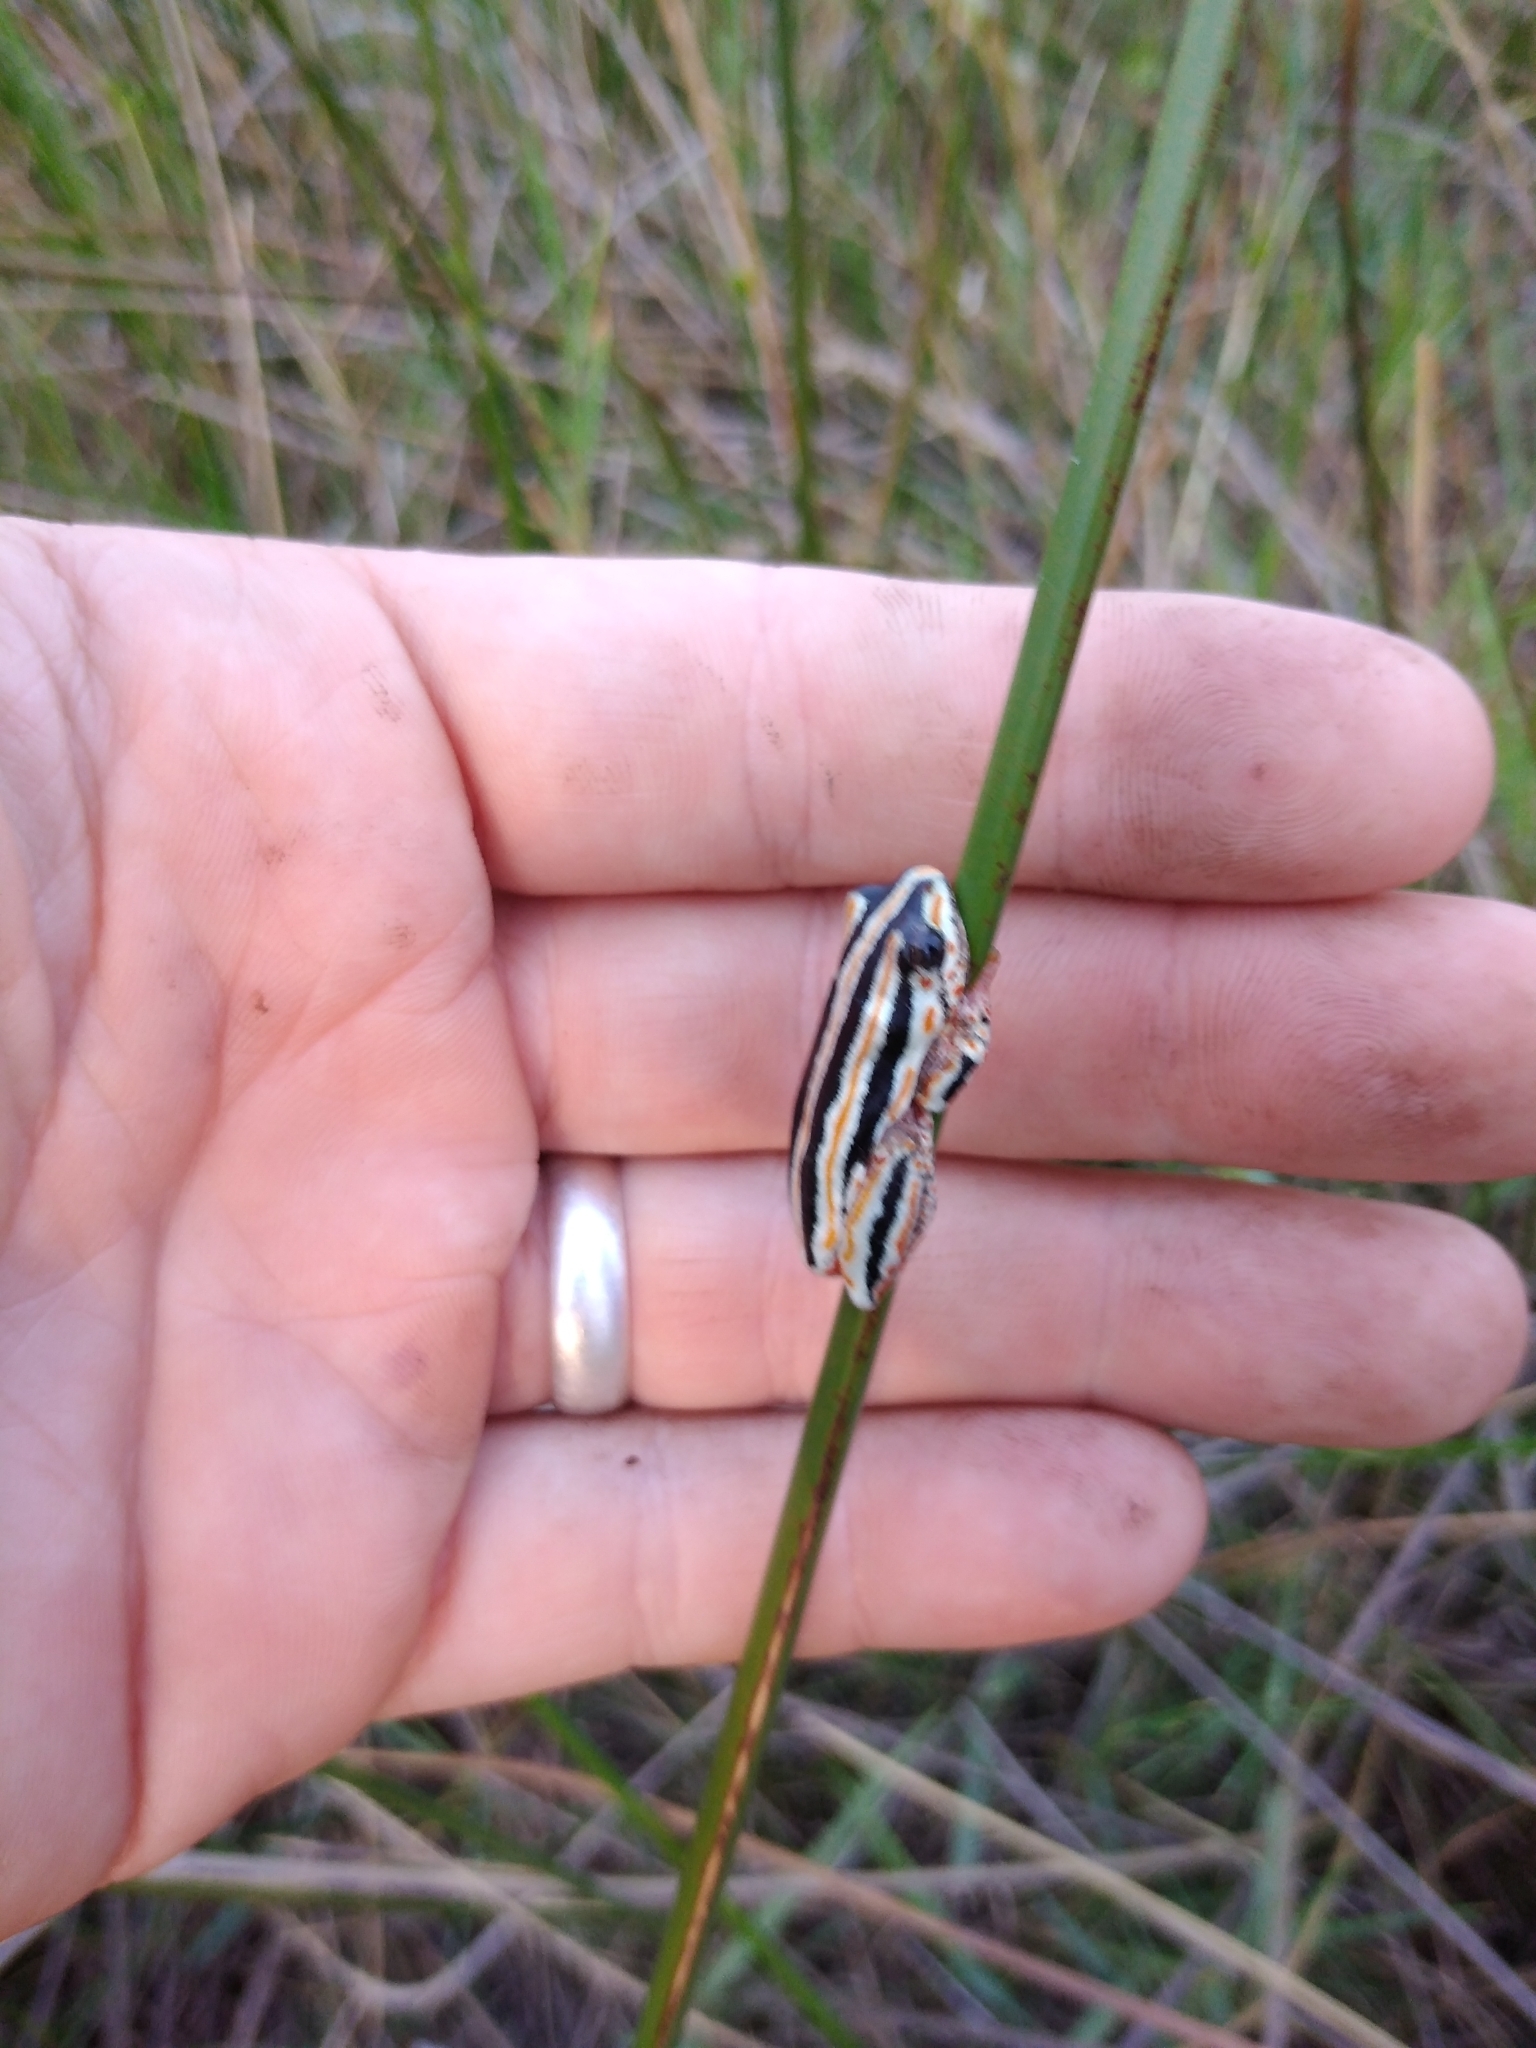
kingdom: Animalia
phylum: Chordata
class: Amphibia
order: Anura
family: Hyperoliidae
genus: Hyperolius
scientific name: Hyperolius marmoratus
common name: Painted reed frog
